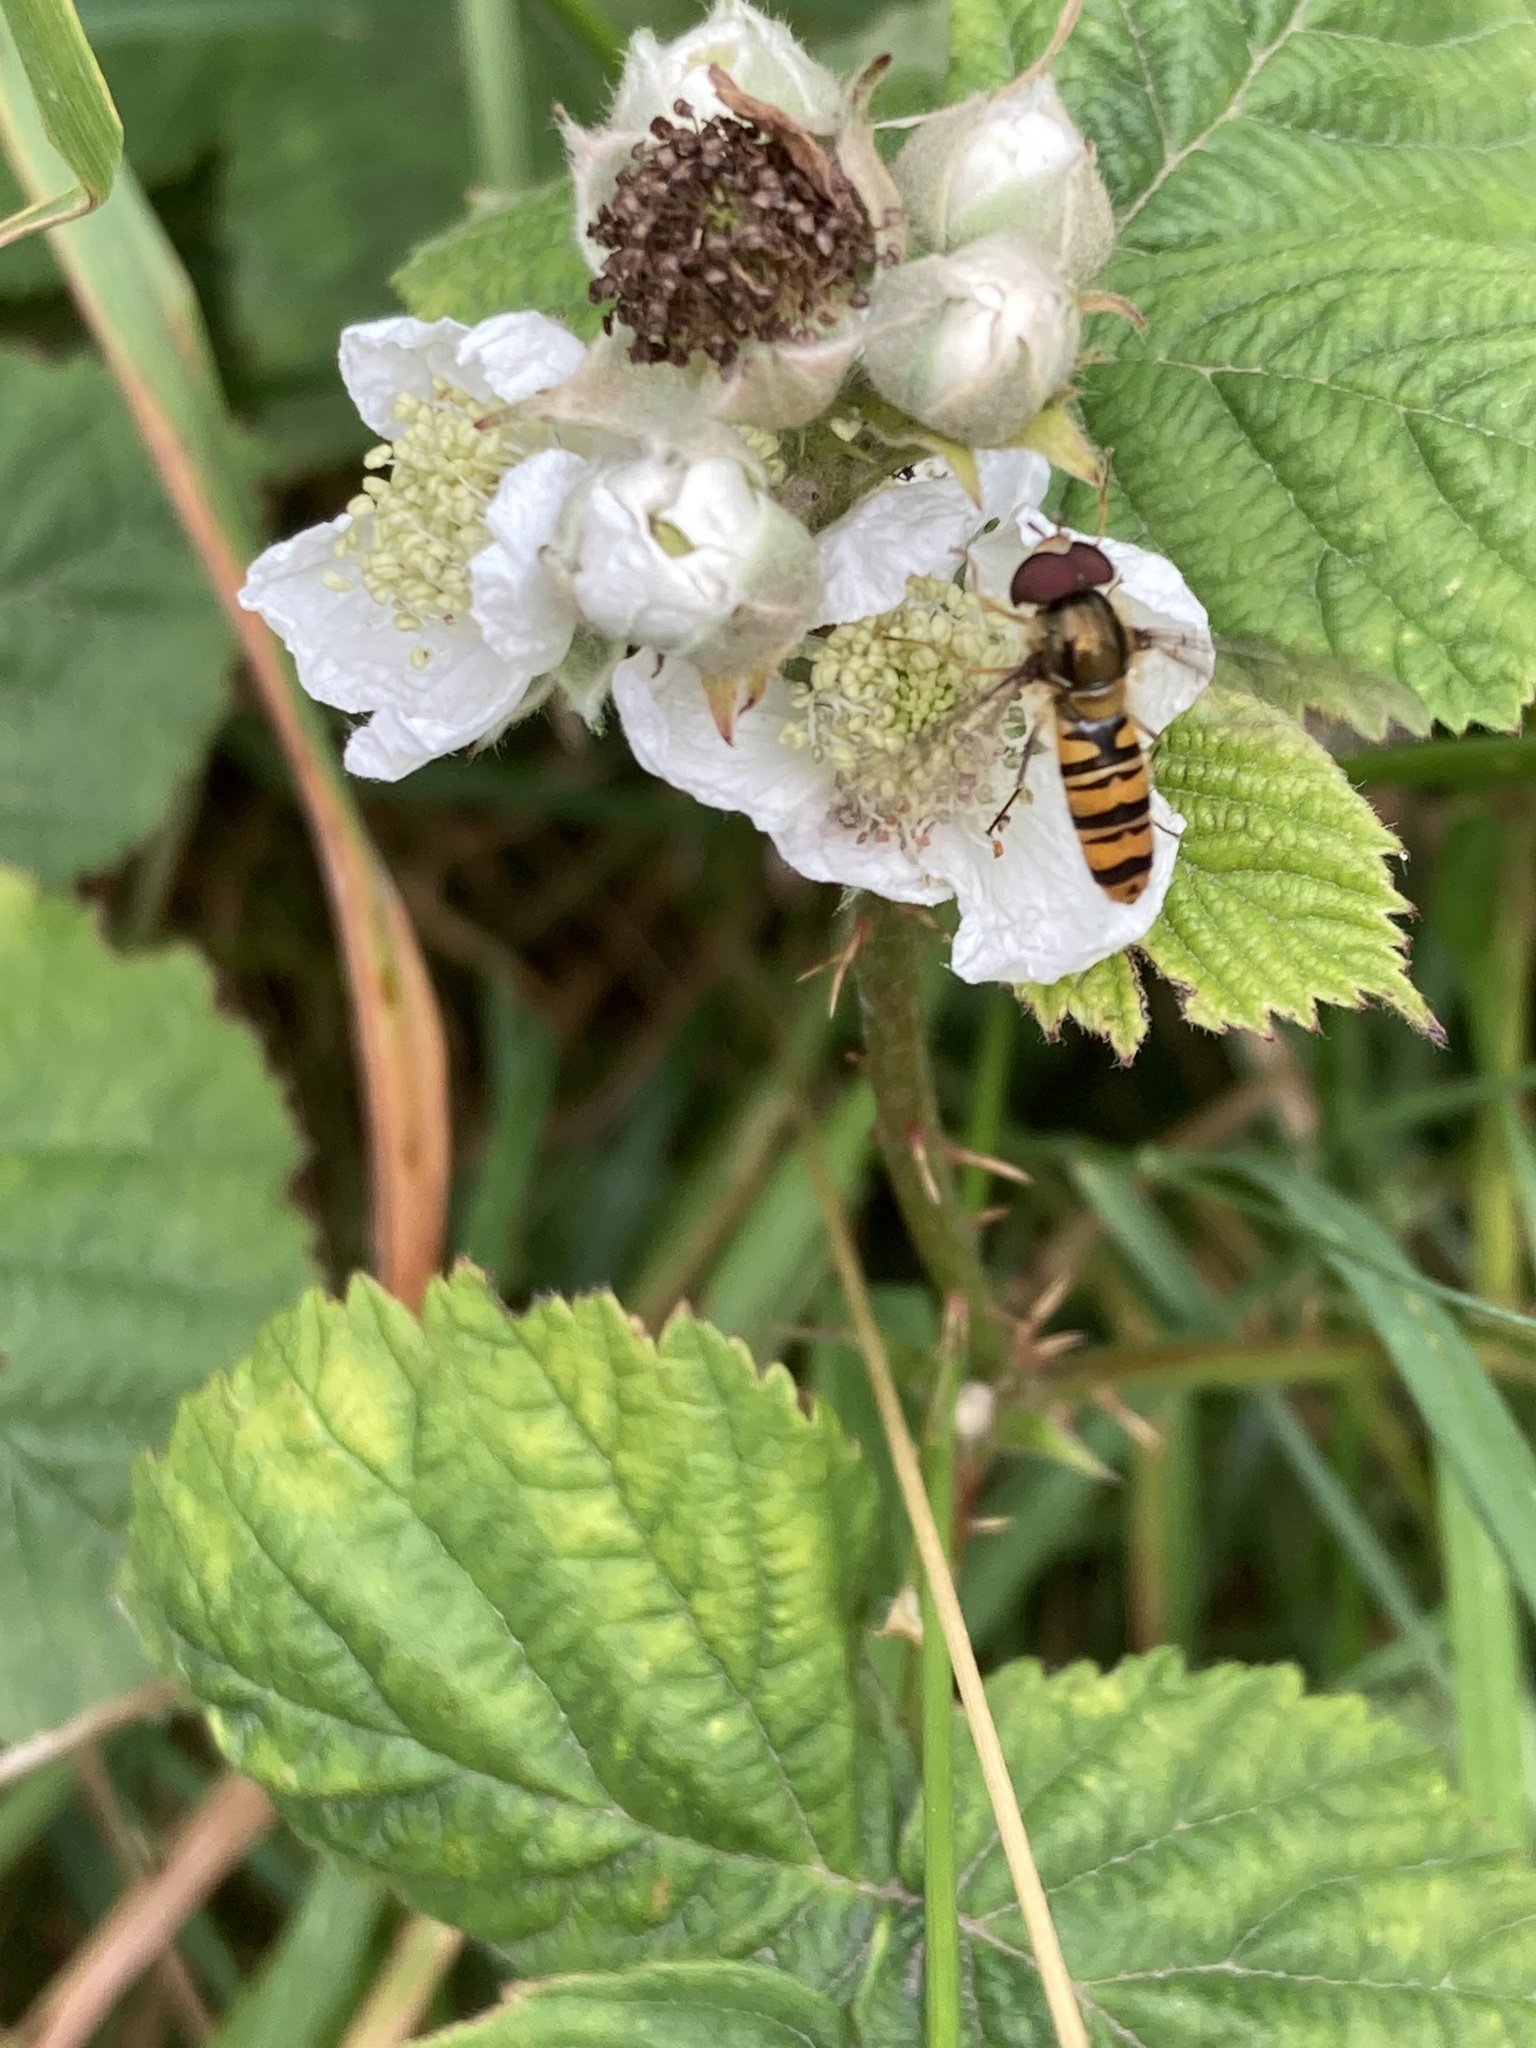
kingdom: Animalia
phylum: Arthropoda
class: Insecta
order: Diptera
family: Syrphidae
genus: Episyrphus
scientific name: Episyrphus balteatus
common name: Marmalade hoverfly
